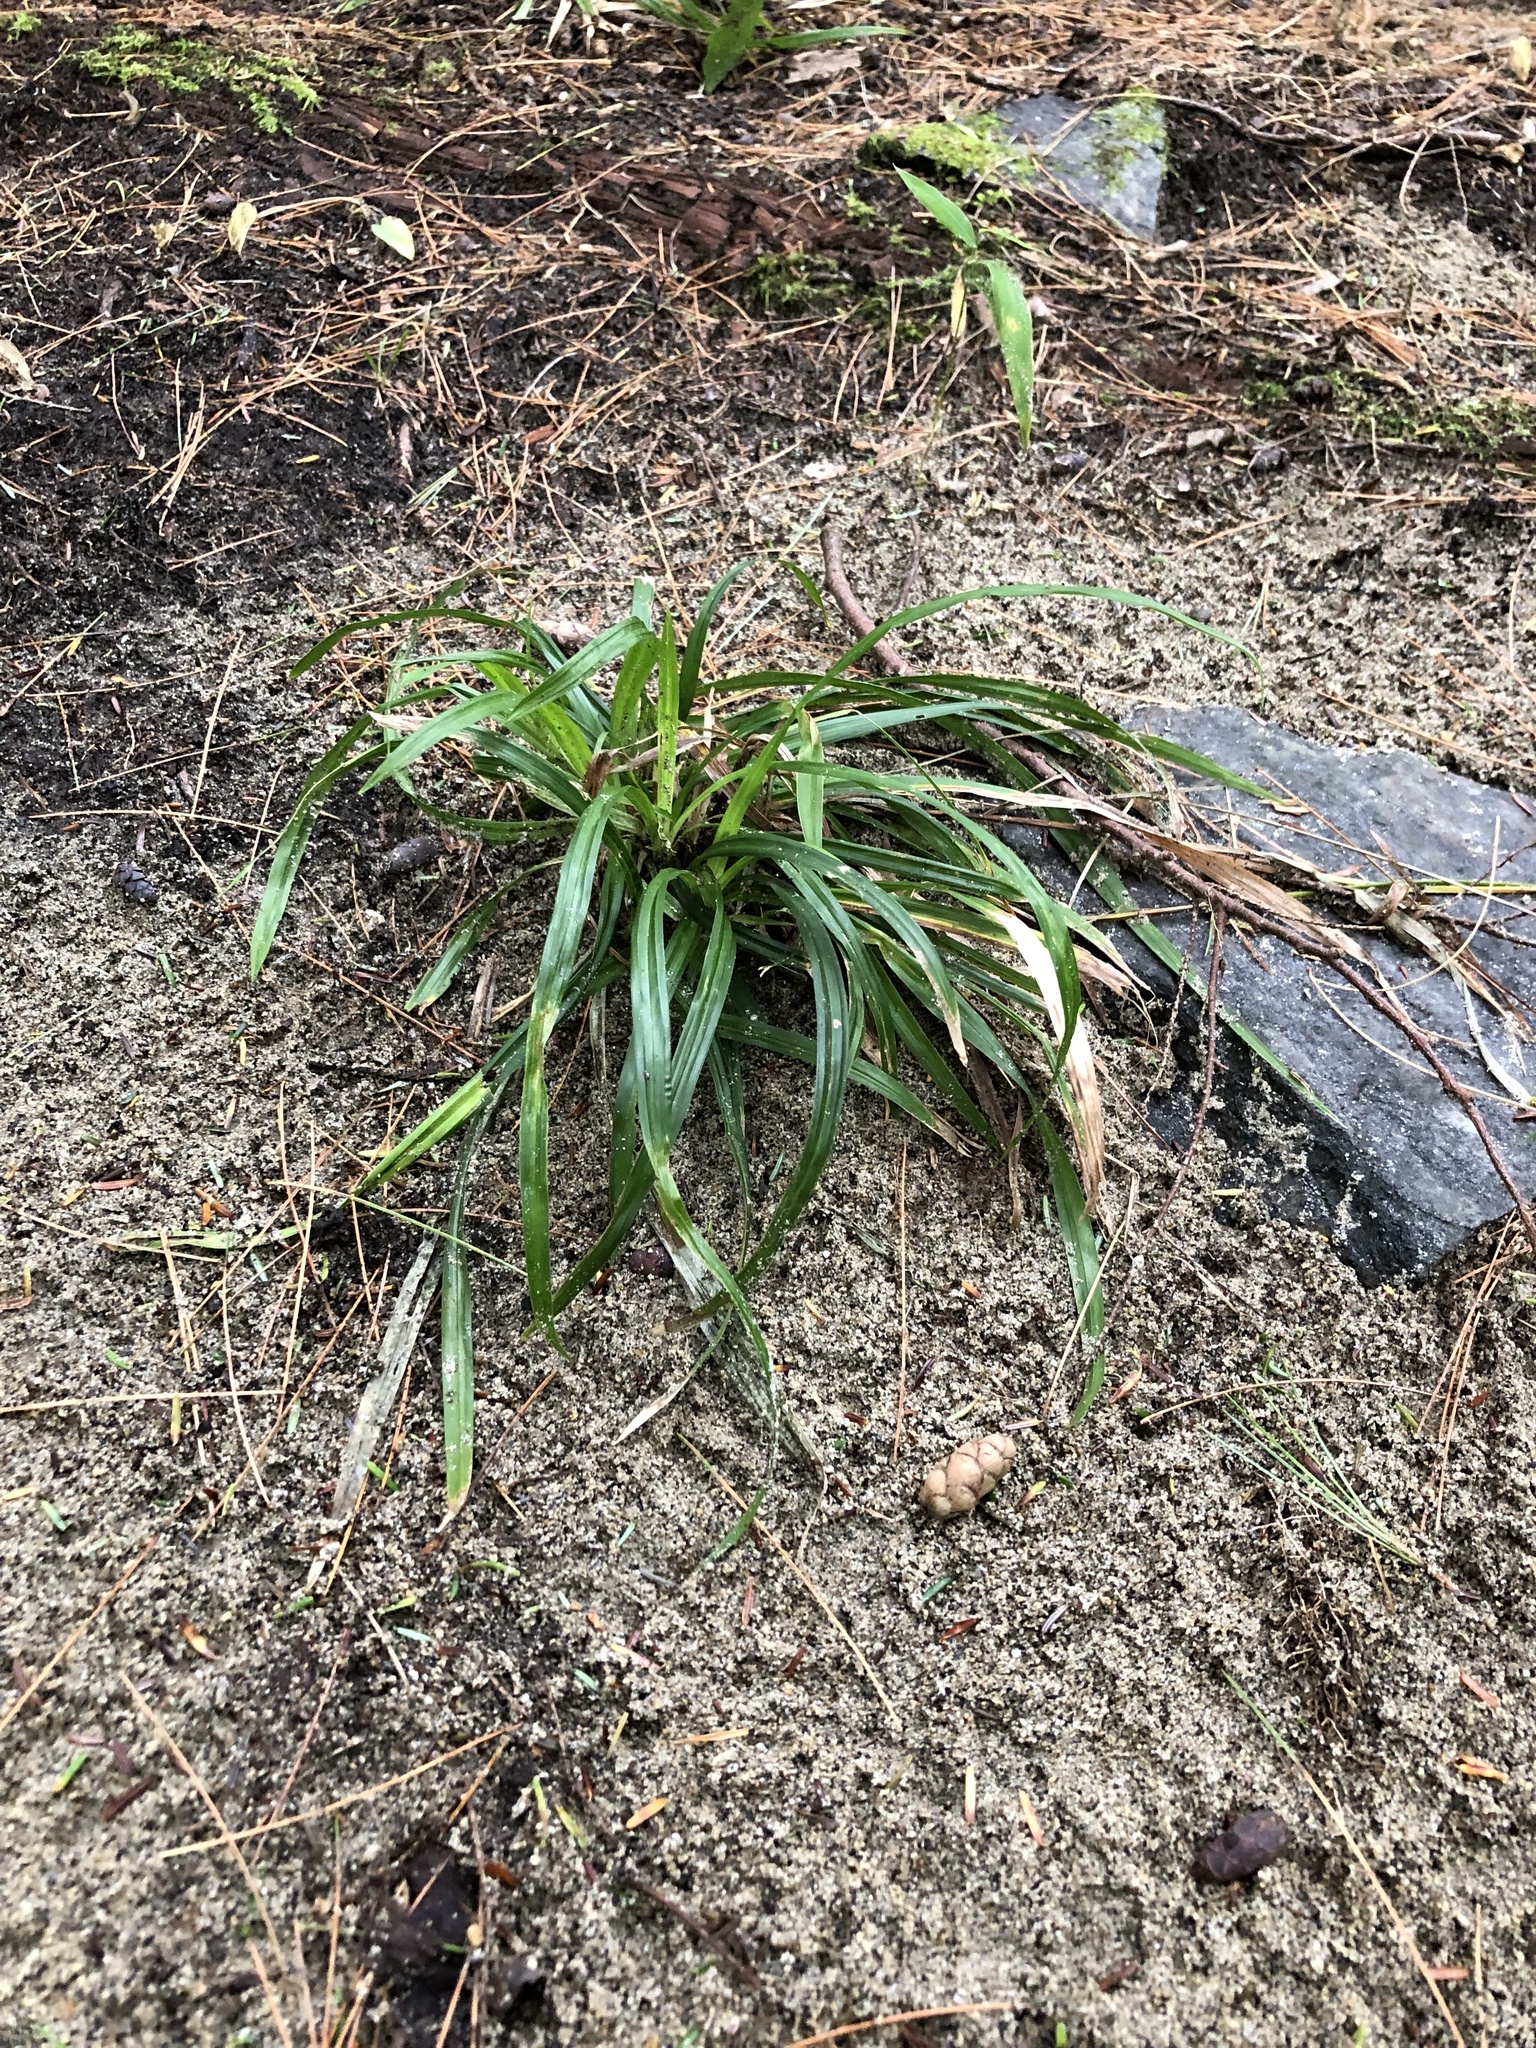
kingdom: Plantae
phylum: Tracheophyta
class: Liliopsida
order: Poales
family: Cyperaceae
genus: Carex
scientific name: Carex
